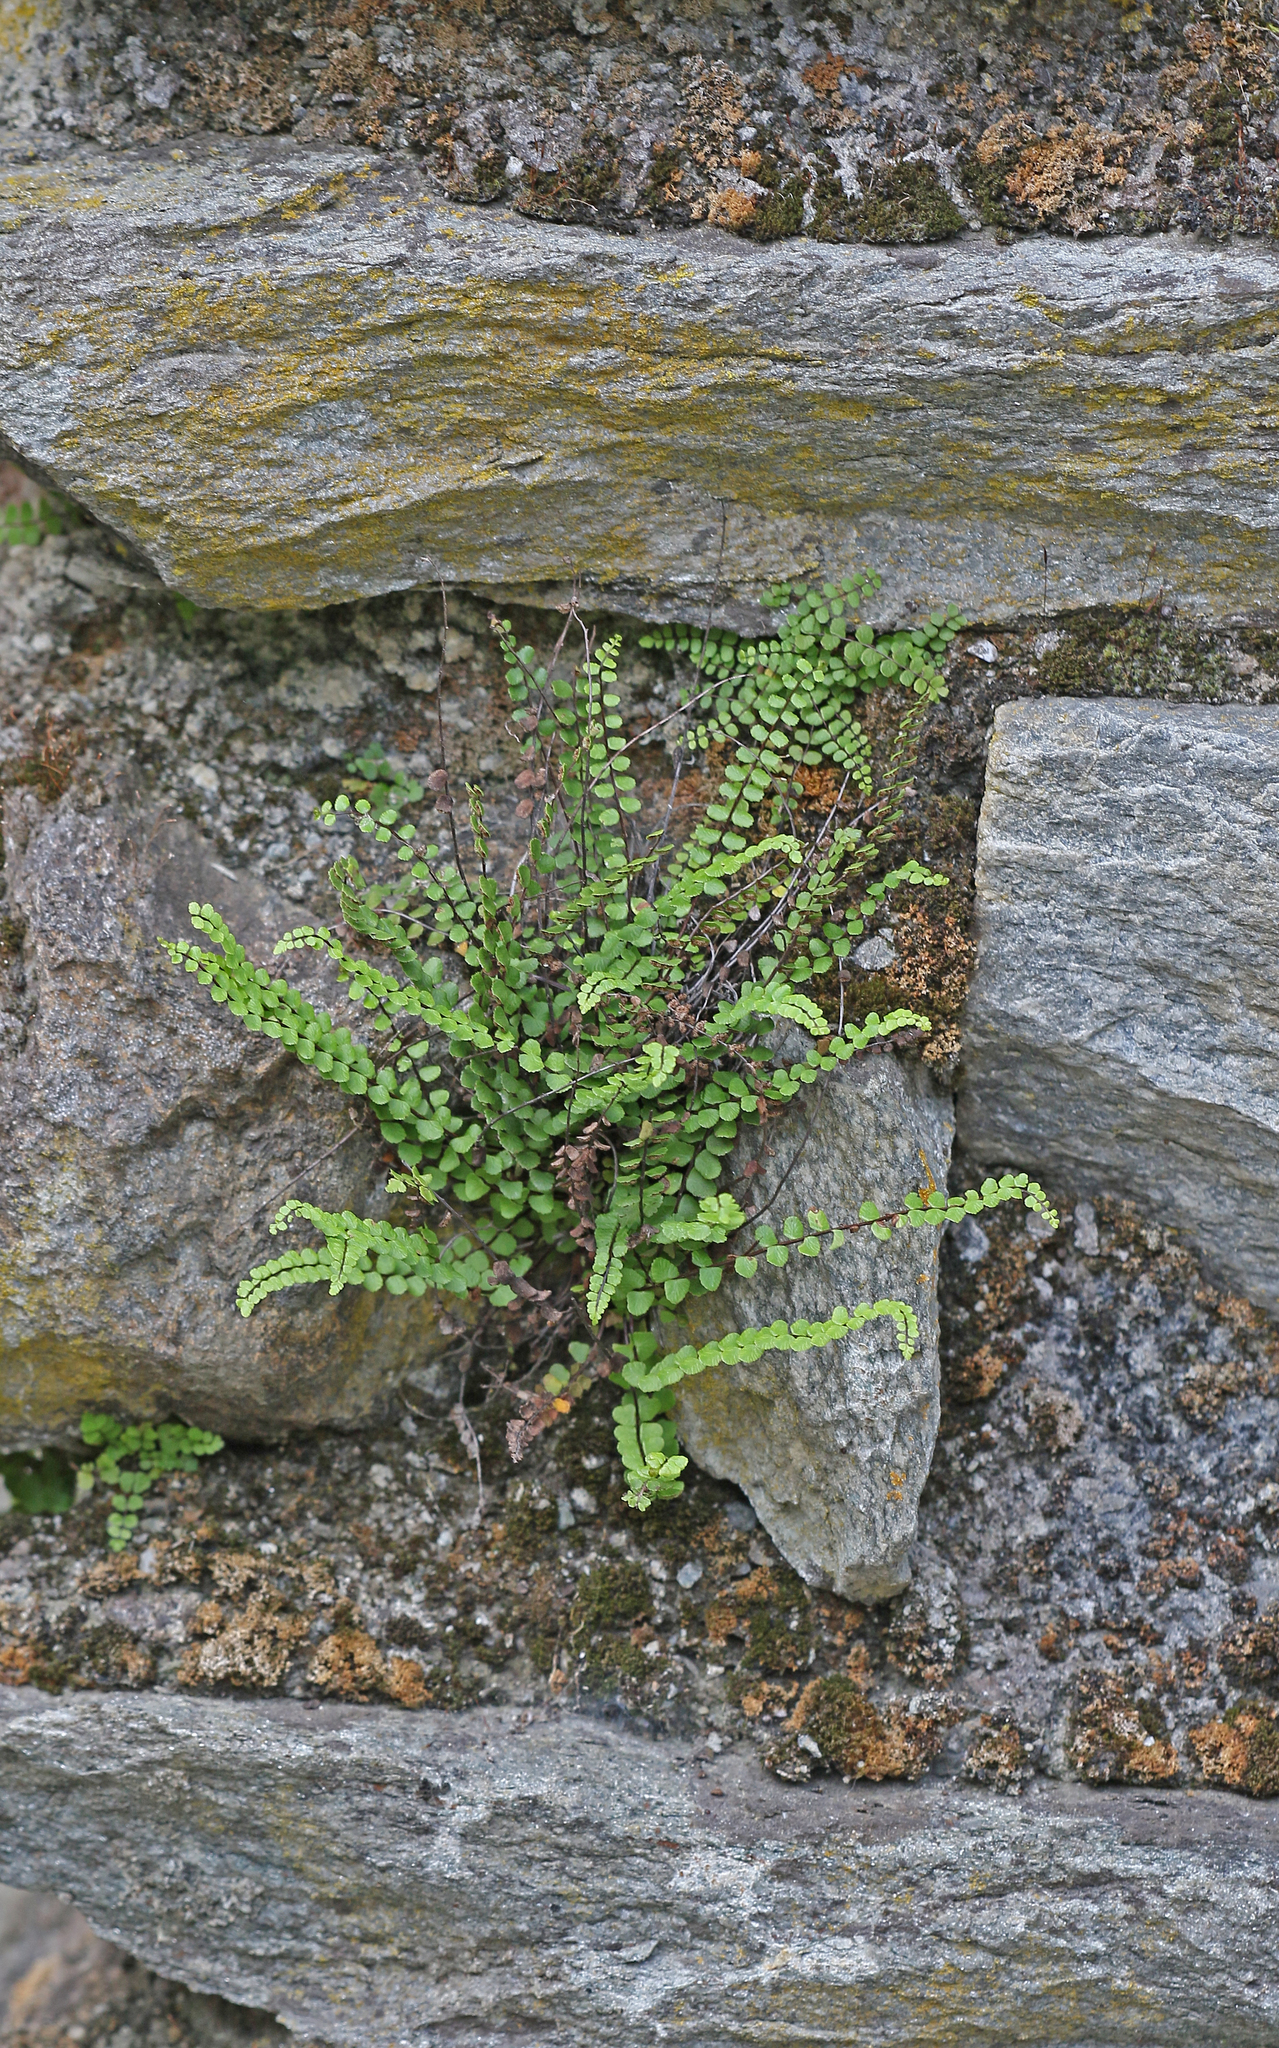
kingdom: Plantae
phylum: Tracheophyta
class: Polypodiopsida
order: Polypodiales
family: Aspleniaceae
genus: Asplenium
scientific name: Asplenium trichomanes
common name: Maidenhair spleenwort
